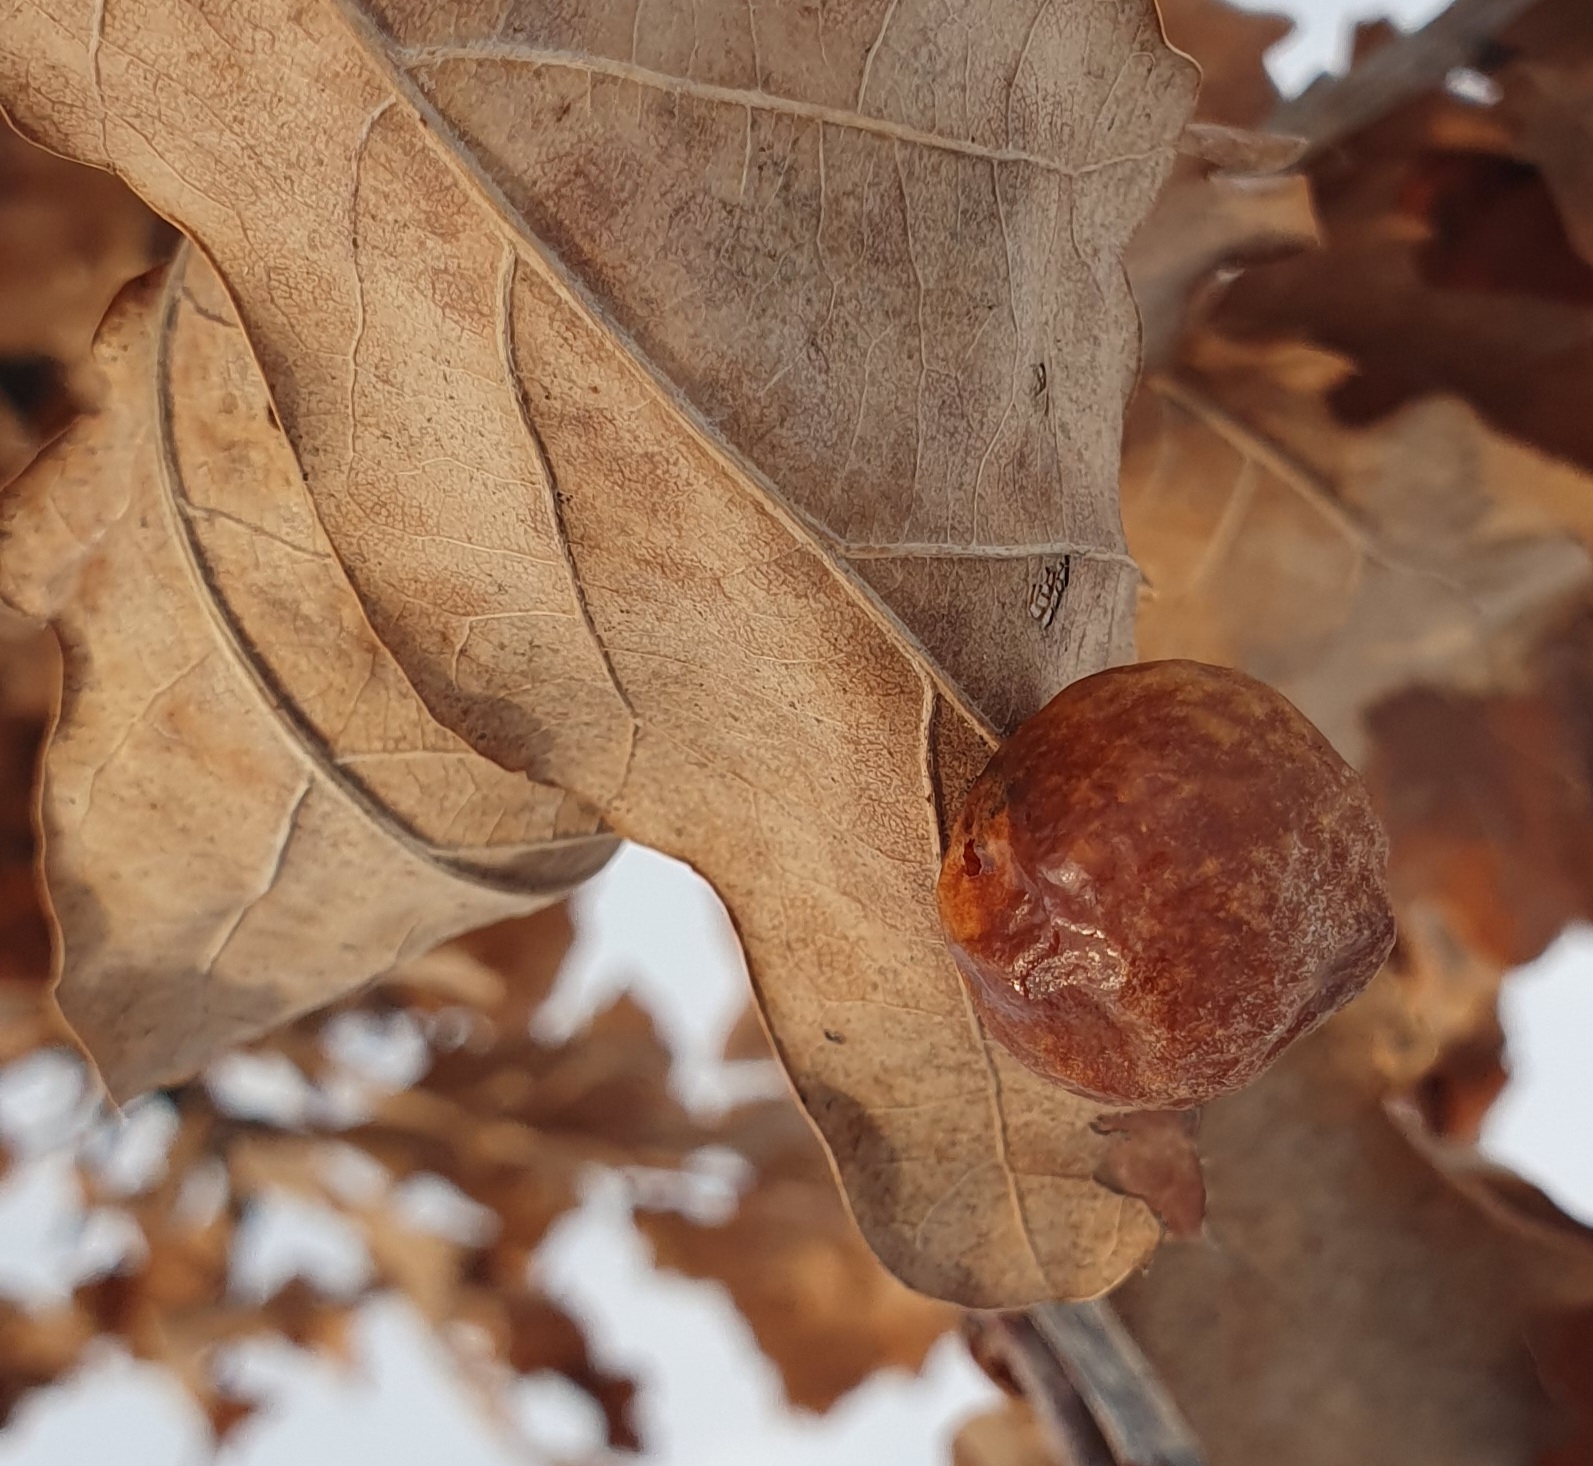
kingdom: Animalia
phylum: Arthropoda
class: Insecta
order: Hymenoptera
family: Cynipidae
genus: Cynips
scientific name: Cynips quercusfolii
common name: Cherry gall
